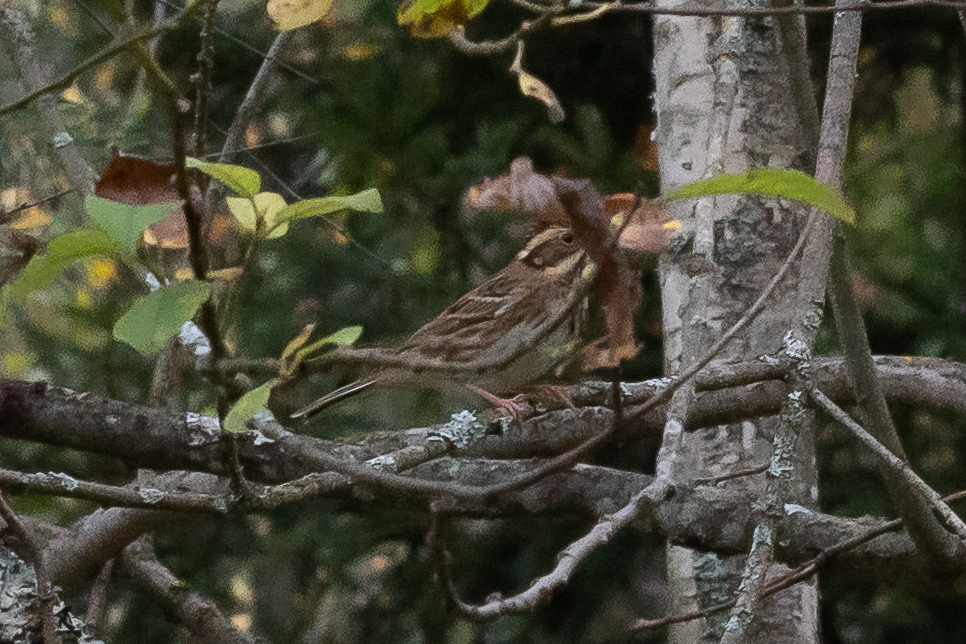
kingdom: Animalia
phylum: Chordata
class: Aves
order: Passeriformes
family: Emberizidae
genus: Emberiza
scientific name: Emberiza rustica
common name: Rustic bunting
